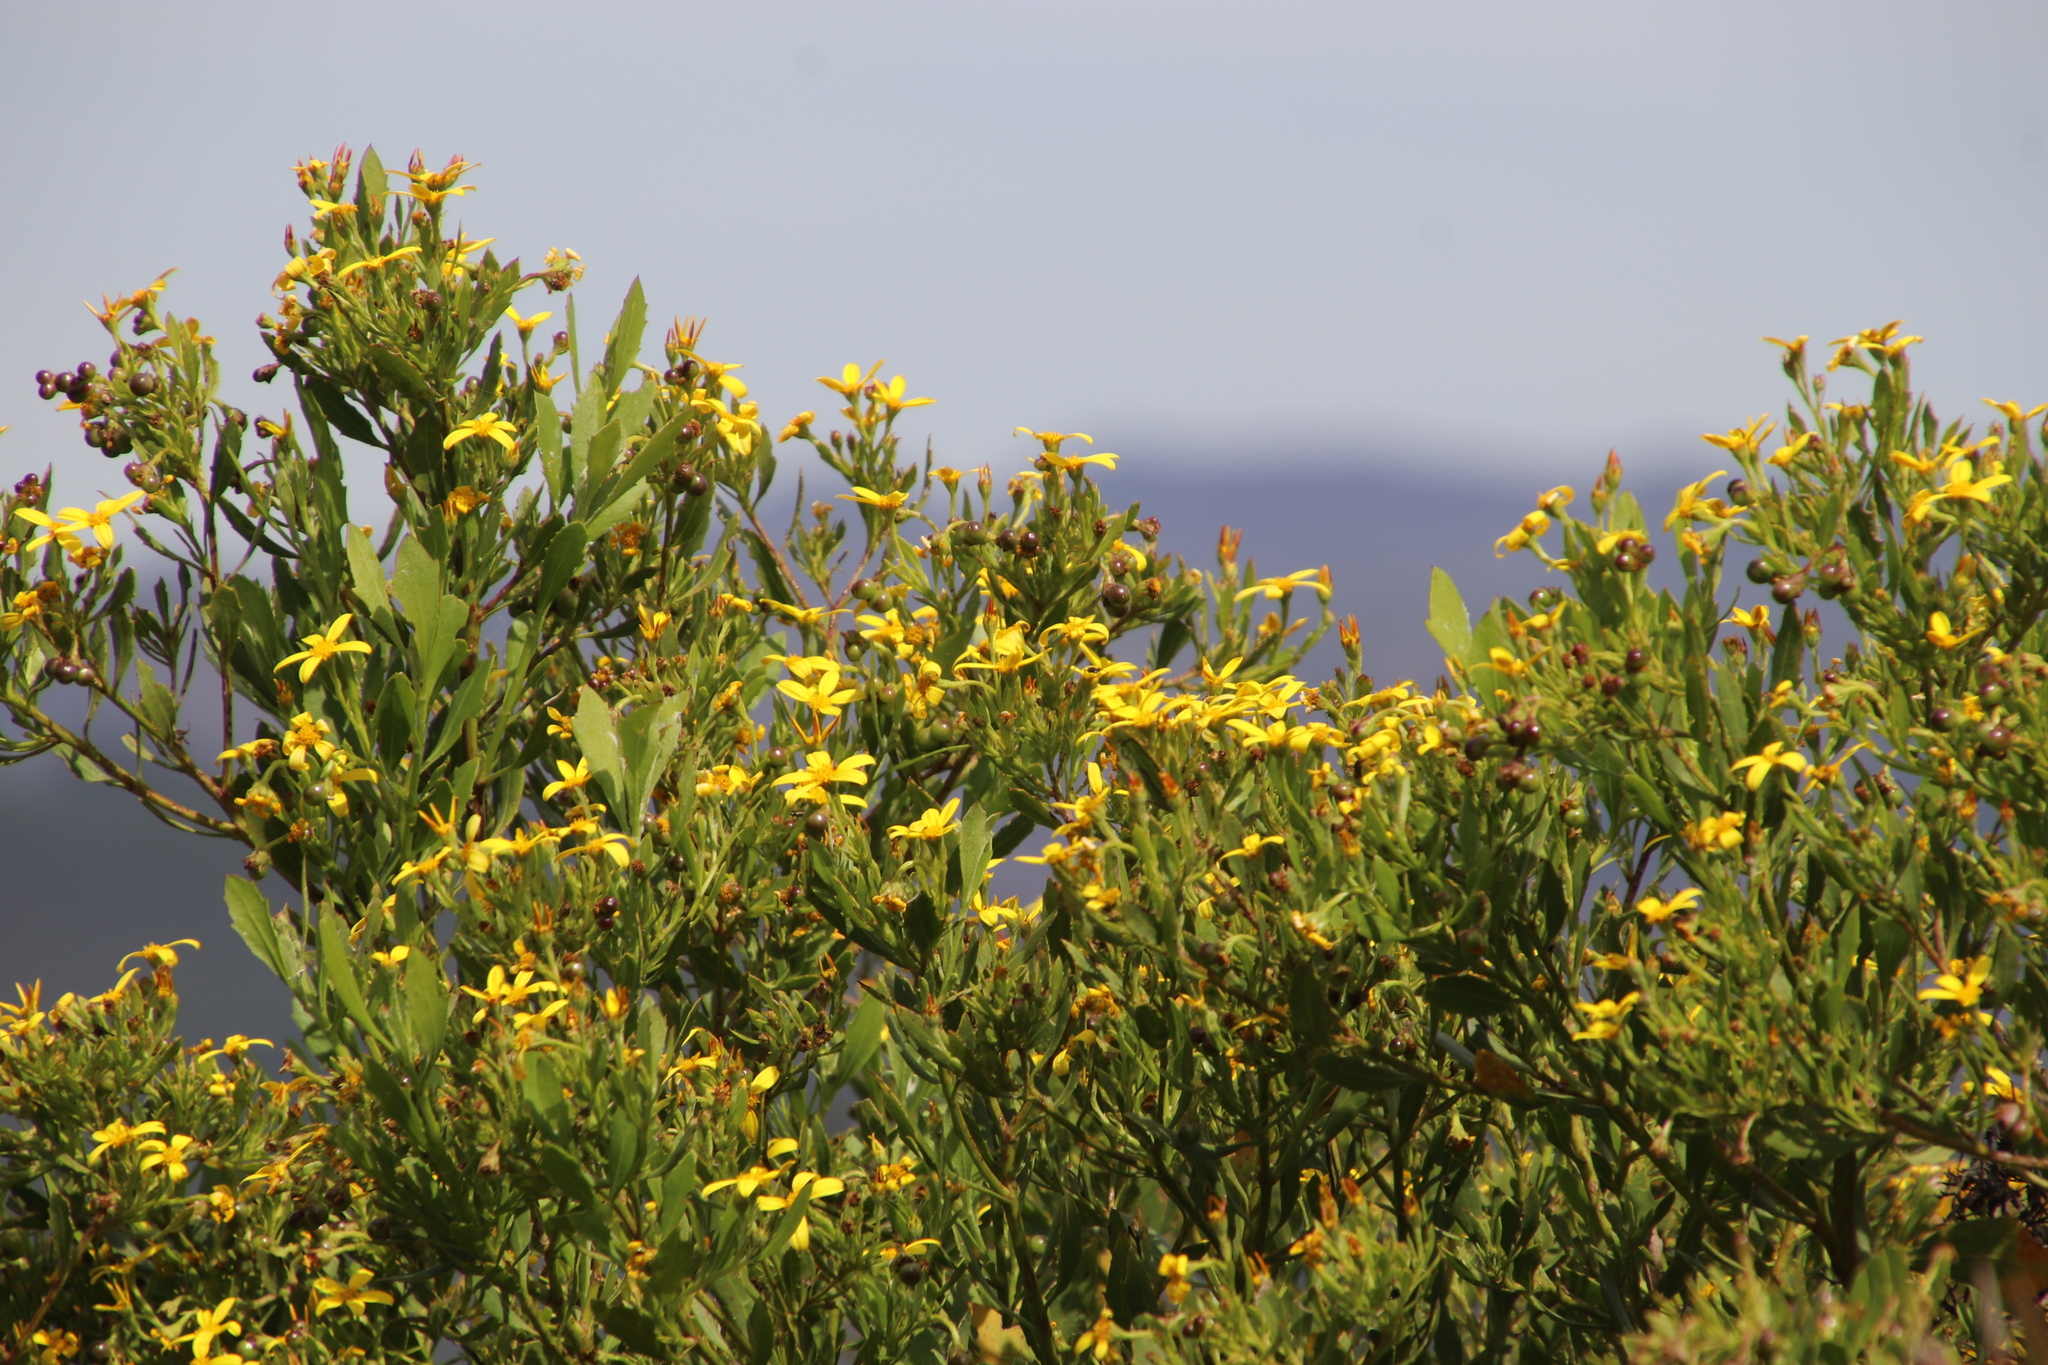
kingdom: Plantae
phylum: Tracheophyta
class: Magnoliopsida
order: Asterales
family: Asteraceae
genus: Osteospermum
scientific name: Osteospermum moniliferum
